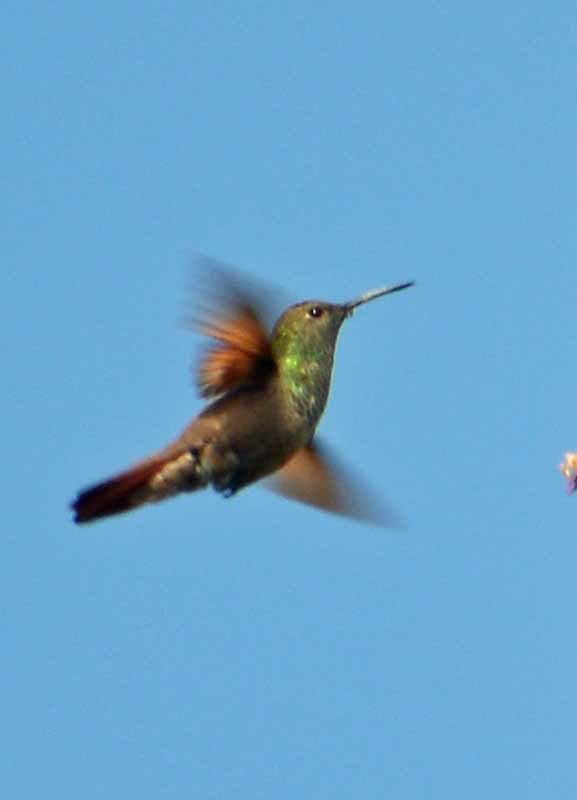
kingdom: Animalia
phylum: Chordata
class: Aves
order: Apodiformes
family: Trochilidae
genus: Saucerottia
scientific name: Saucerottia beryllina
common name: Berylline hummingbird
